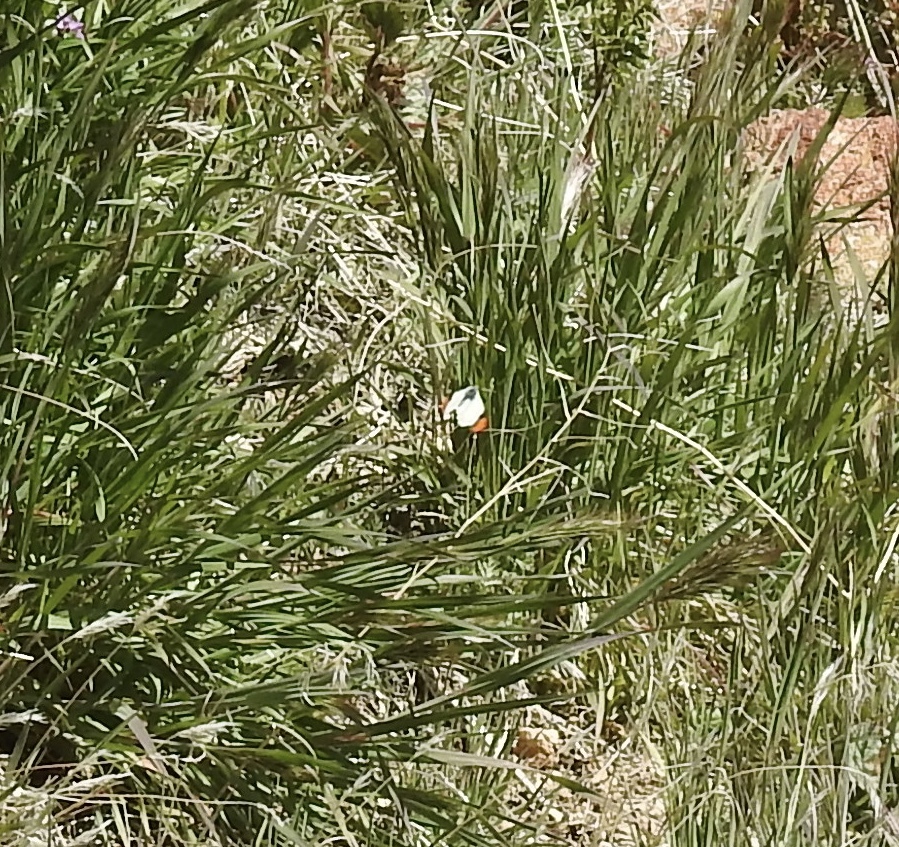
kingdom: Animalia
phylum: Arthropoda
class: Insecta
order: Lepidoptera
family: Pieridae
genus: Anthocharis
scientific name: Anthocharis sara
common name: Sara's orangetip
